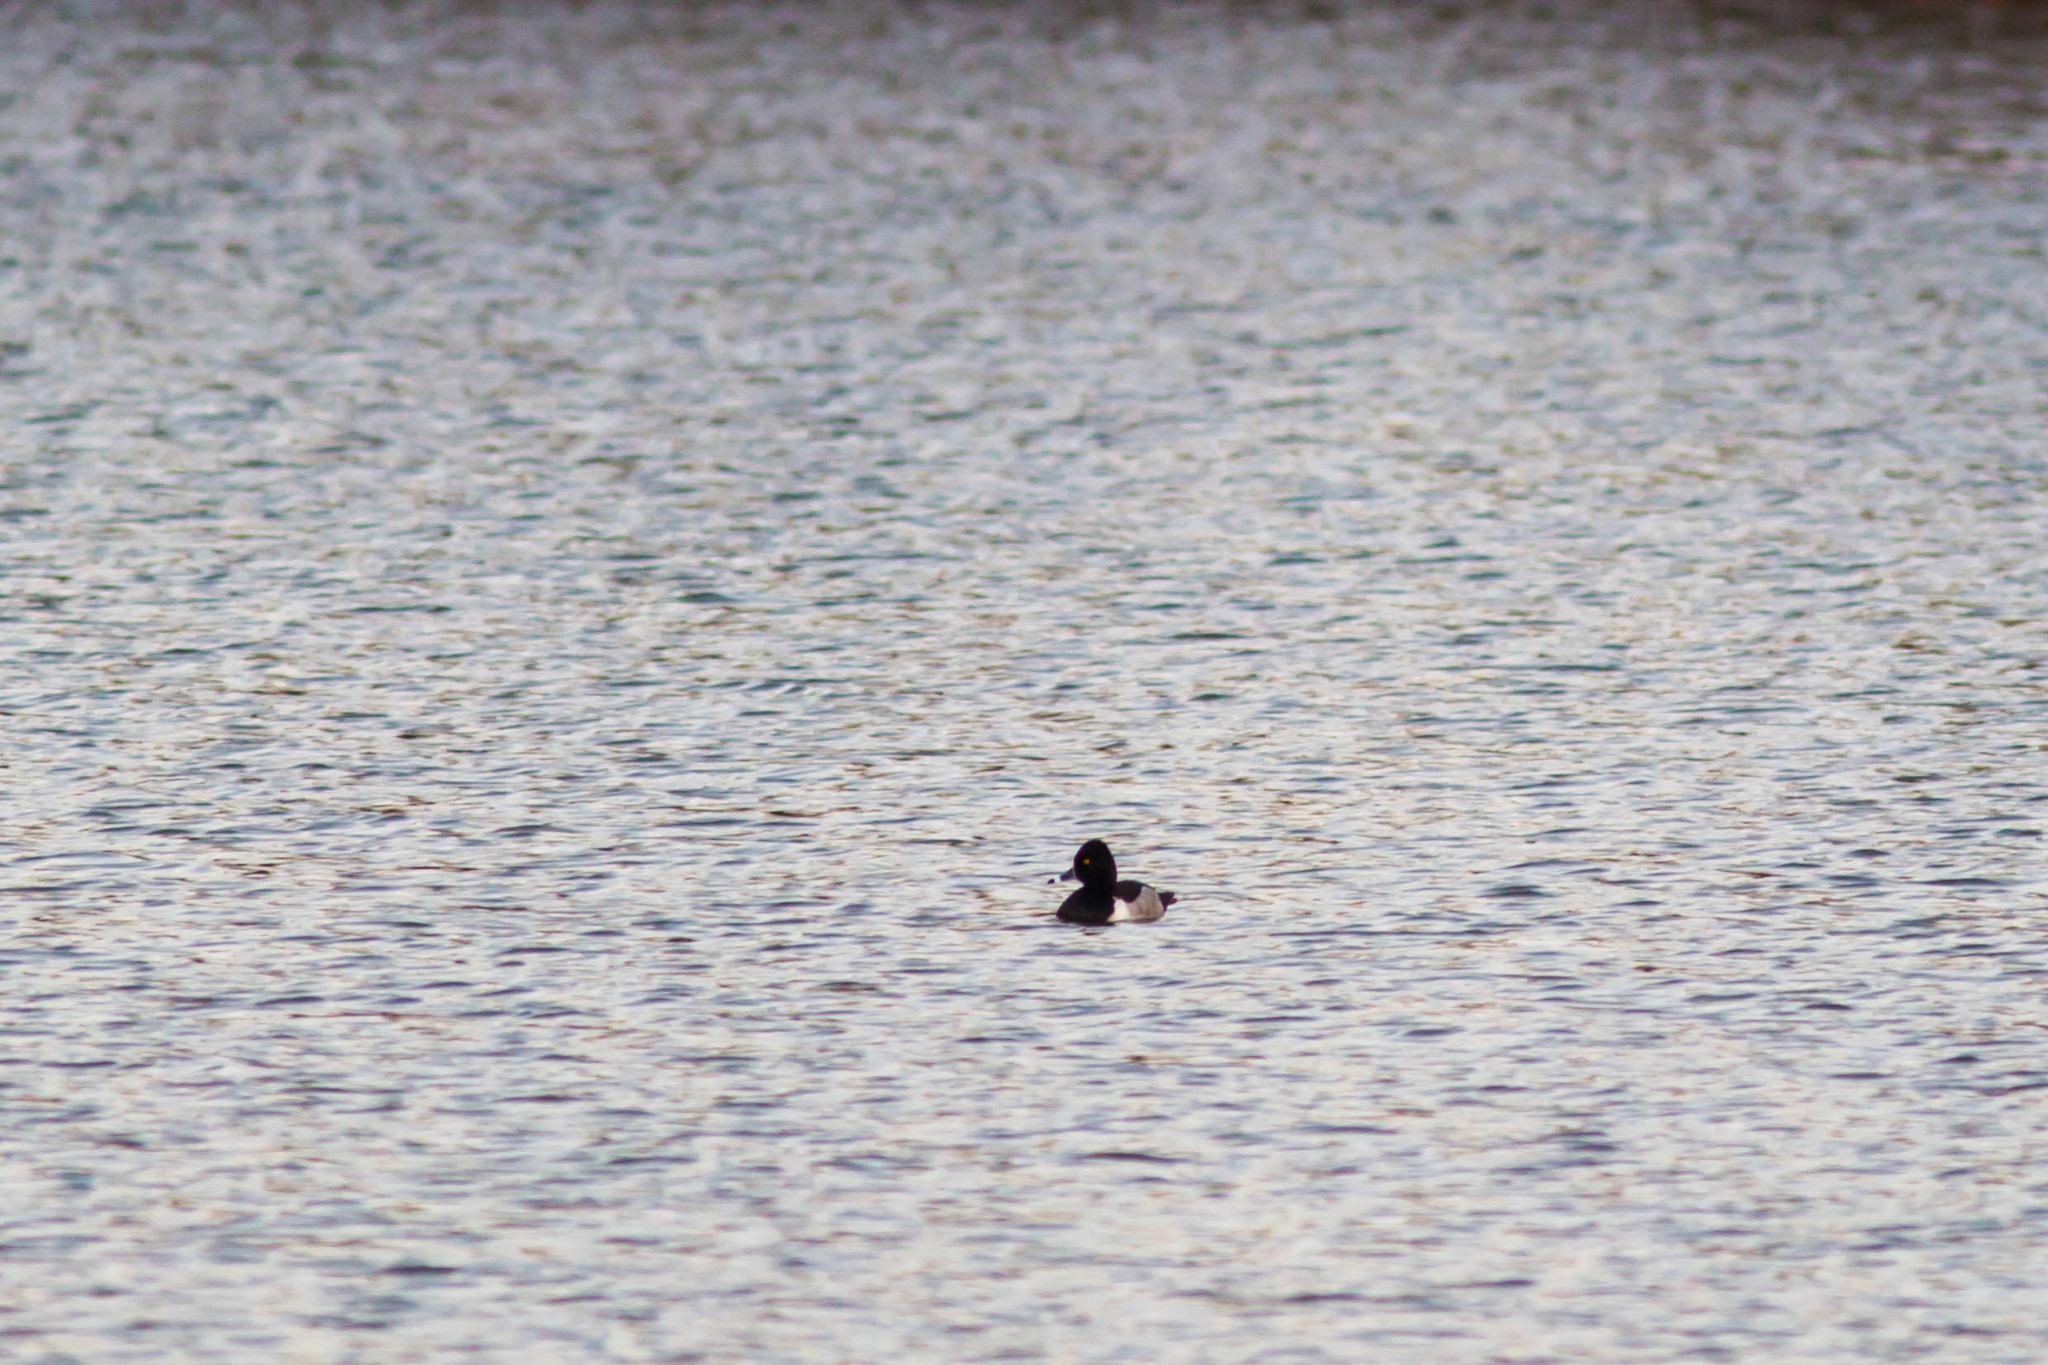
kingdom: Animalia
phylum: Chordata
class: Aves
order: Anseriformes
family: Anatidae
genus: Aythya
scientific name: Aythya collaris
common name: Ring-necked duck
